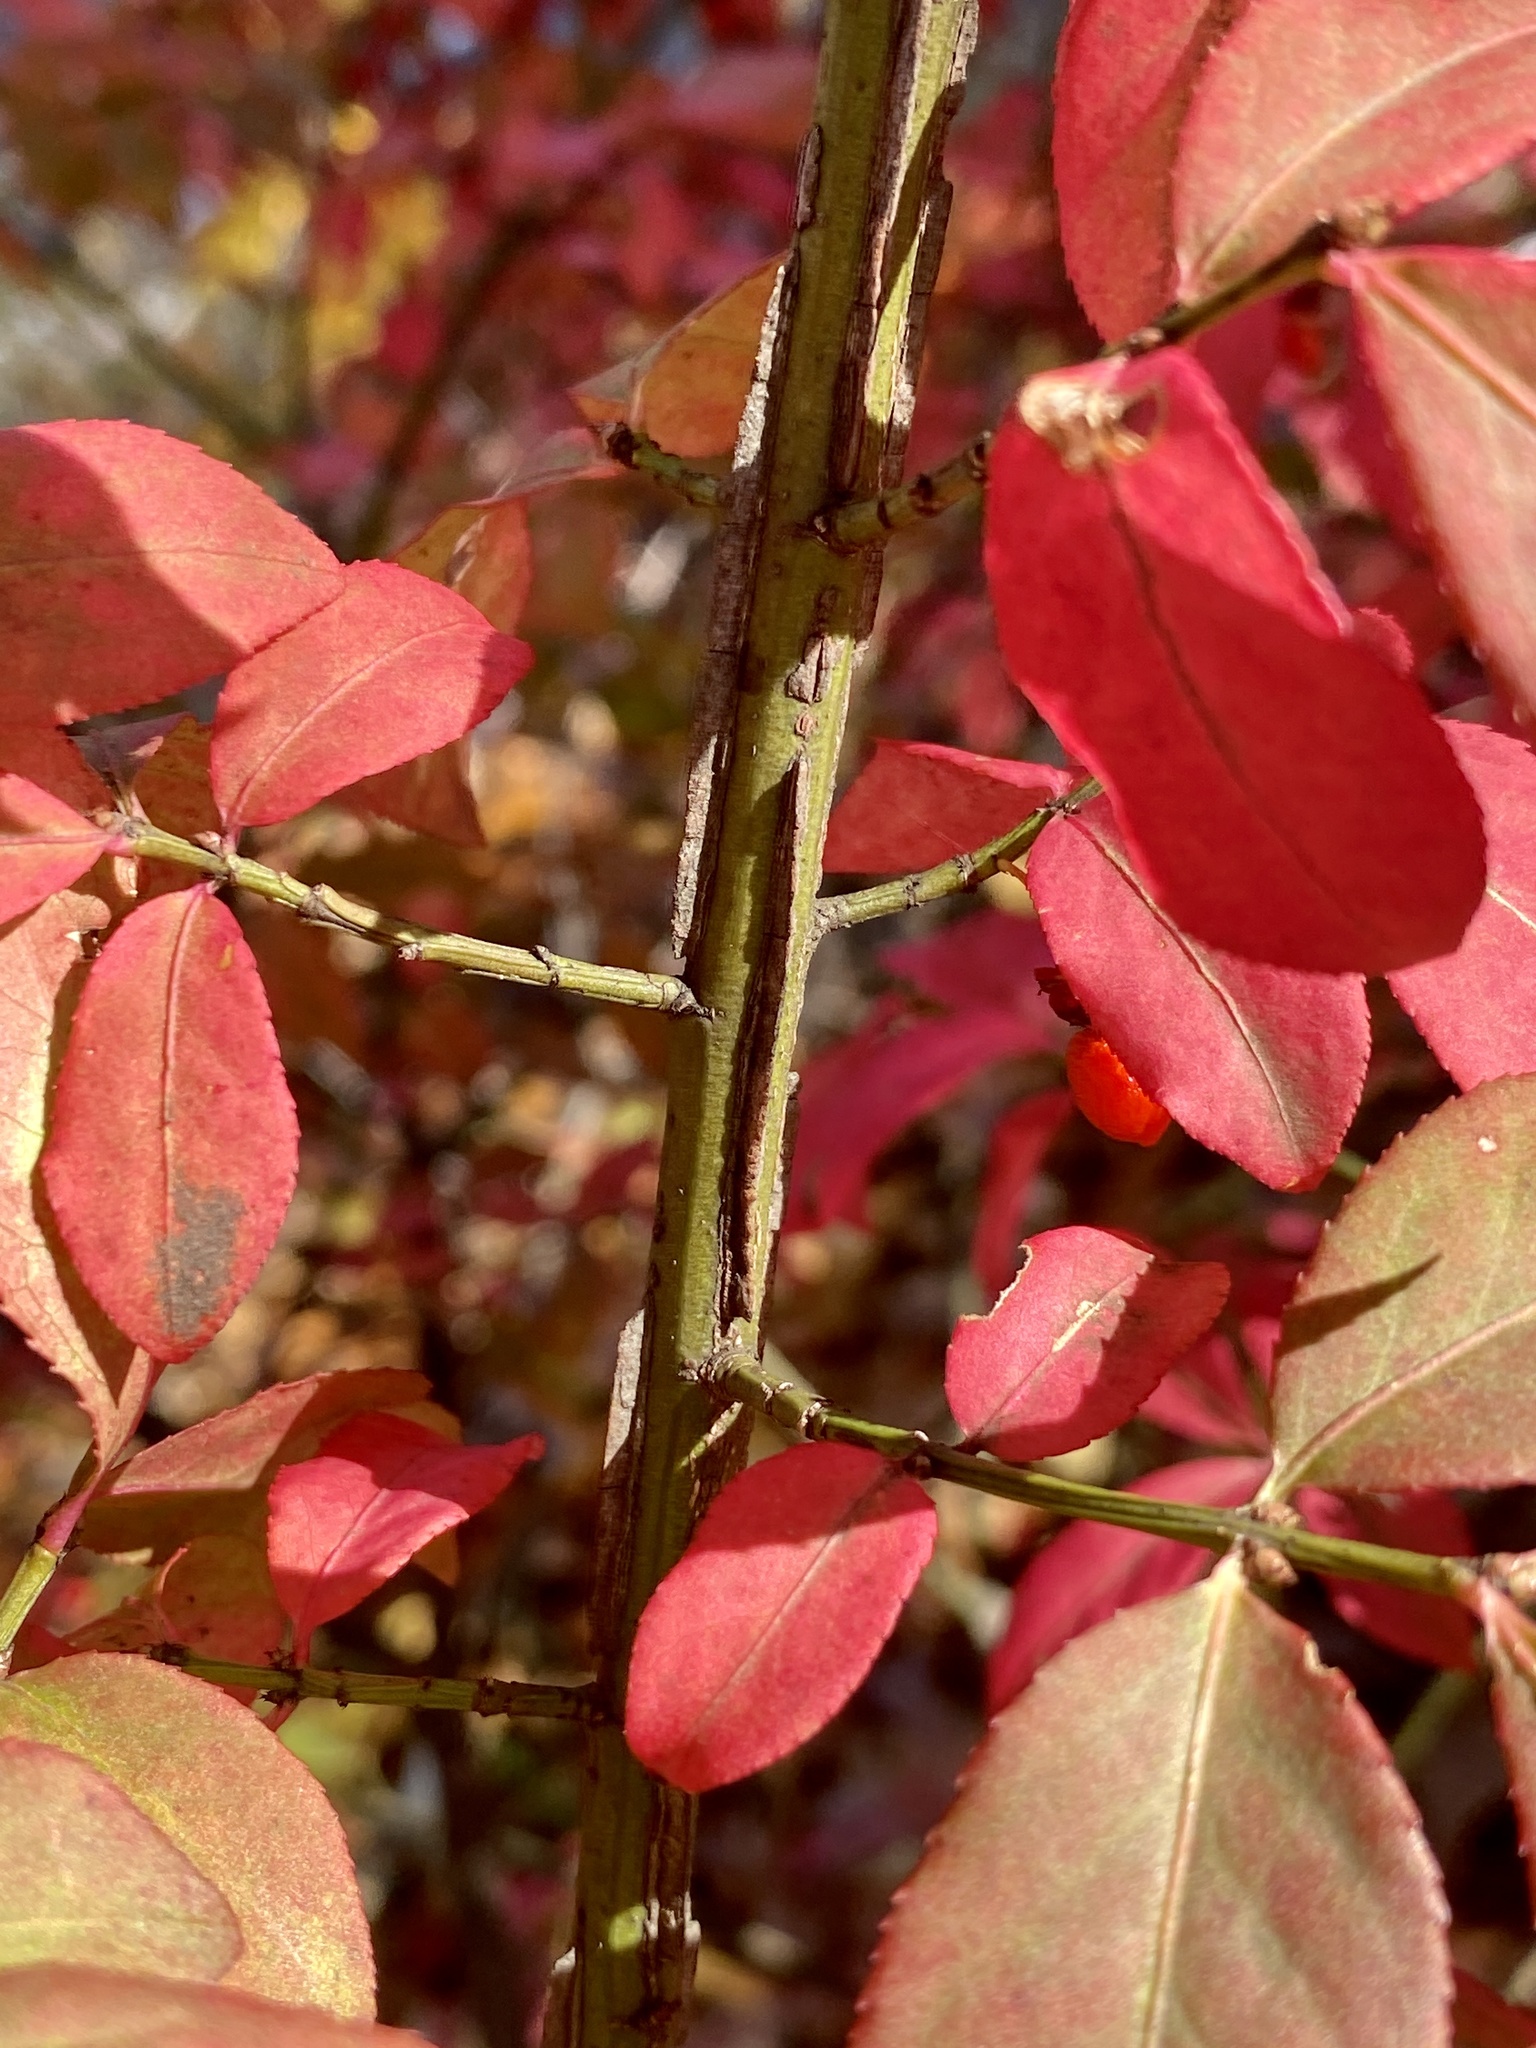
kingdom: Plantae
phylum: Tracheophyta
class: Magnoliopsida
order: Celastrales
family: Celastraceae
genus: Euonymus
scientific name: Euonymus alatus
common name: Winged euonymus
